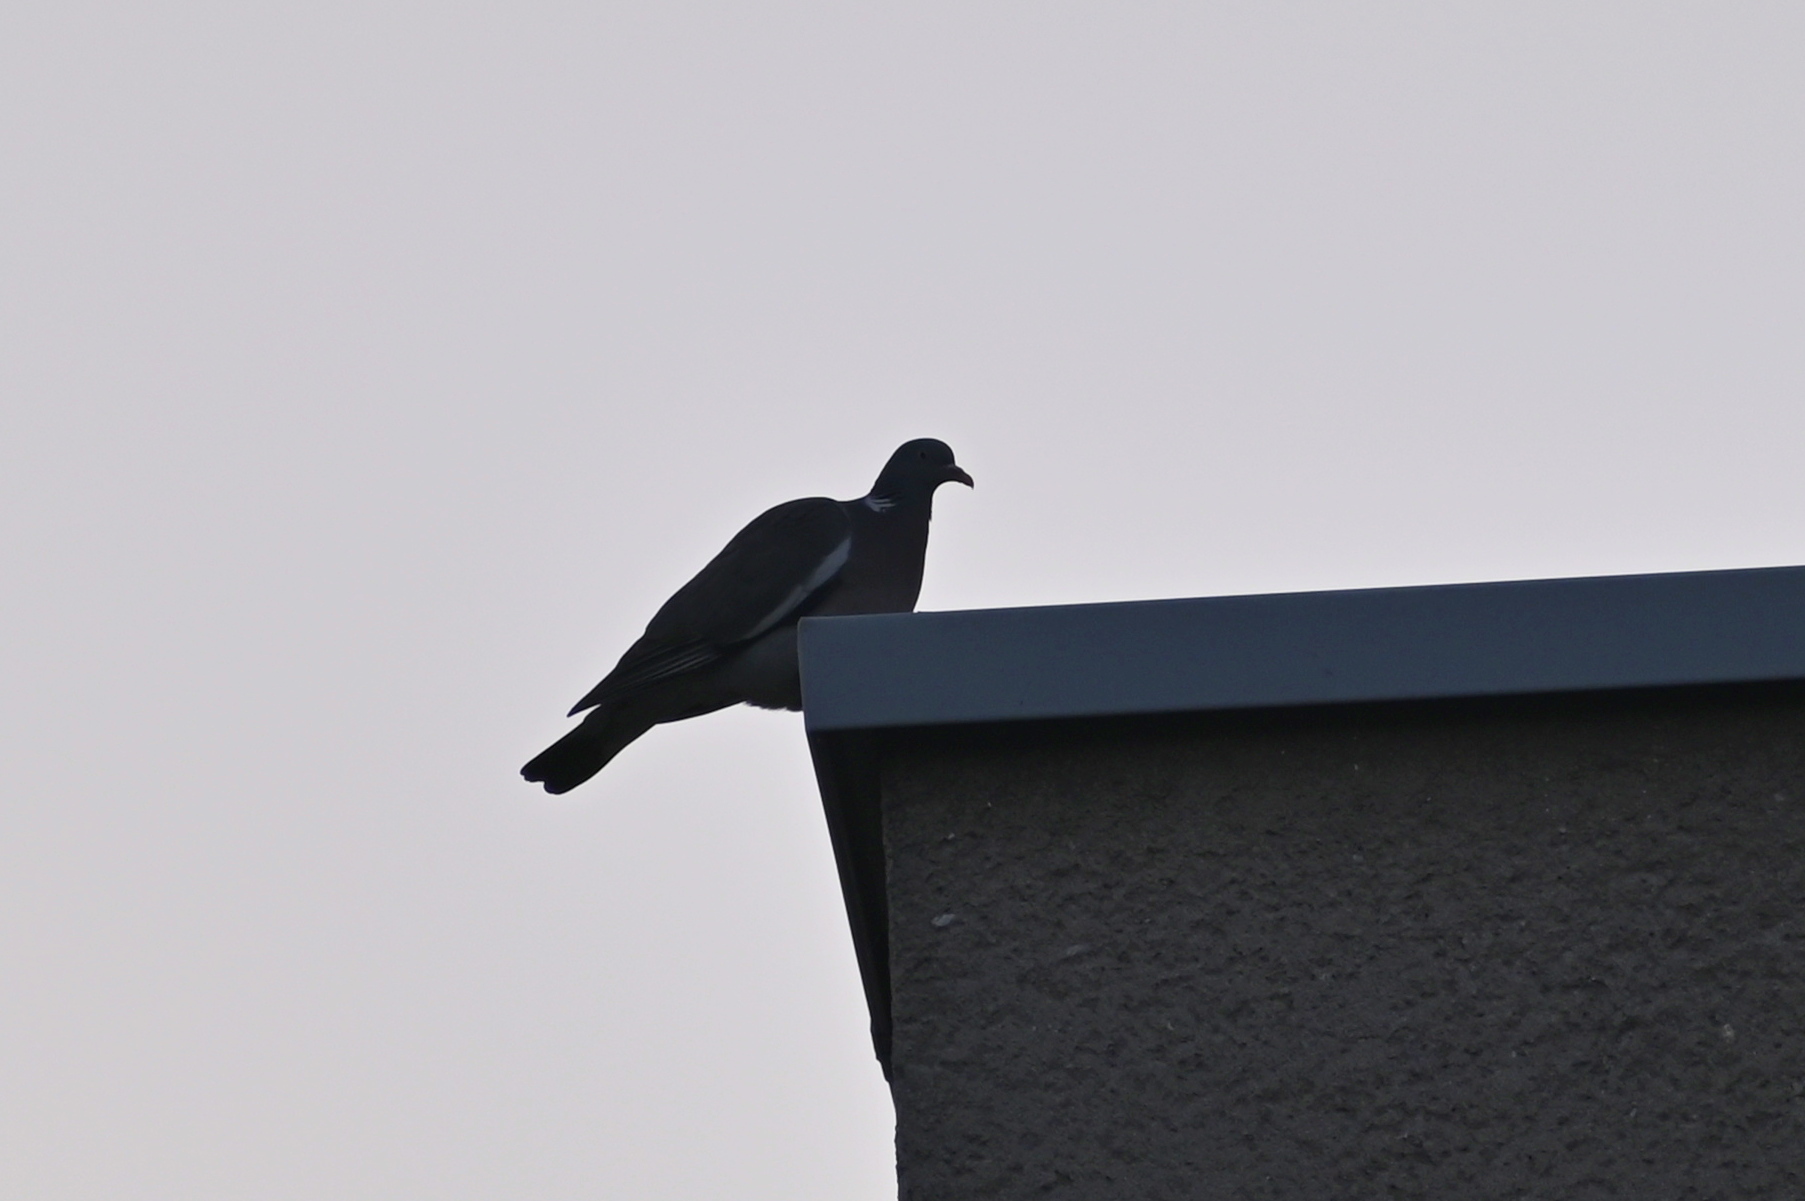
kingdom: Animalia
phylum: Chordata
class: Aves
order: Columbiformes
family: Columbidae
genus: Columba
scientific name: Columba palumbus
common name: Common wood pigeon
